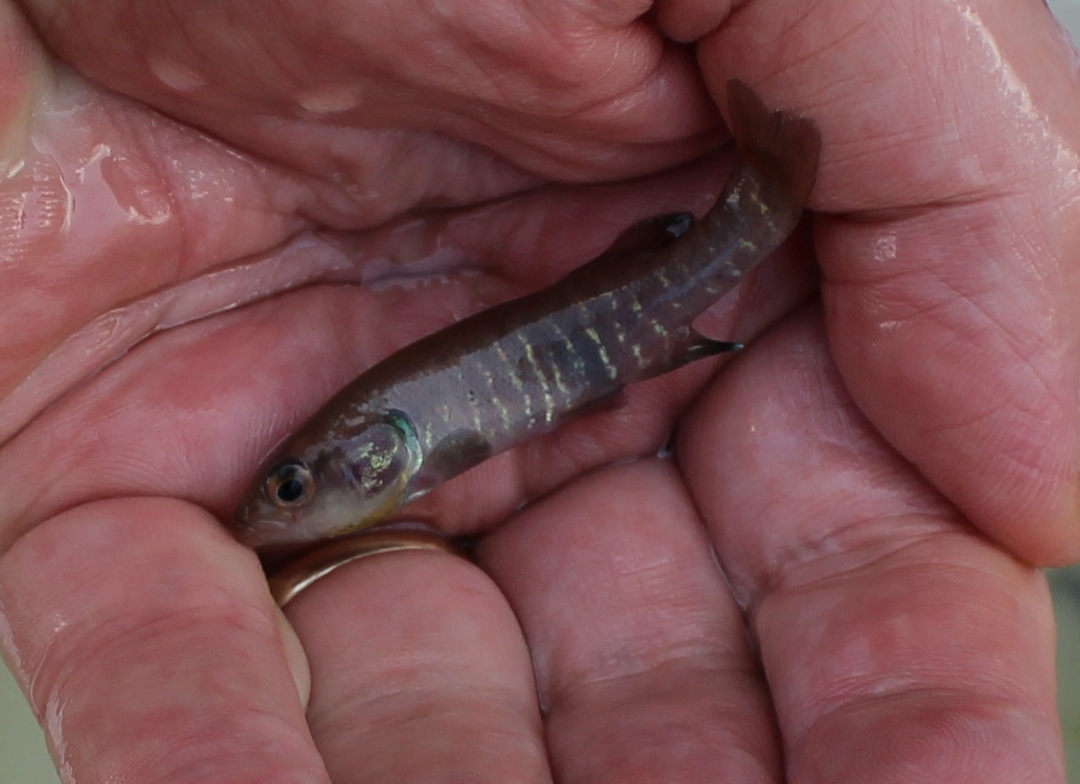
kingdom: Animalia
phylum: Chordata
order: Esociformes
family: Umbridae
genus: Novumbra
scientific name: Novumbra hubbsi
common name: Olympic mudminnow
